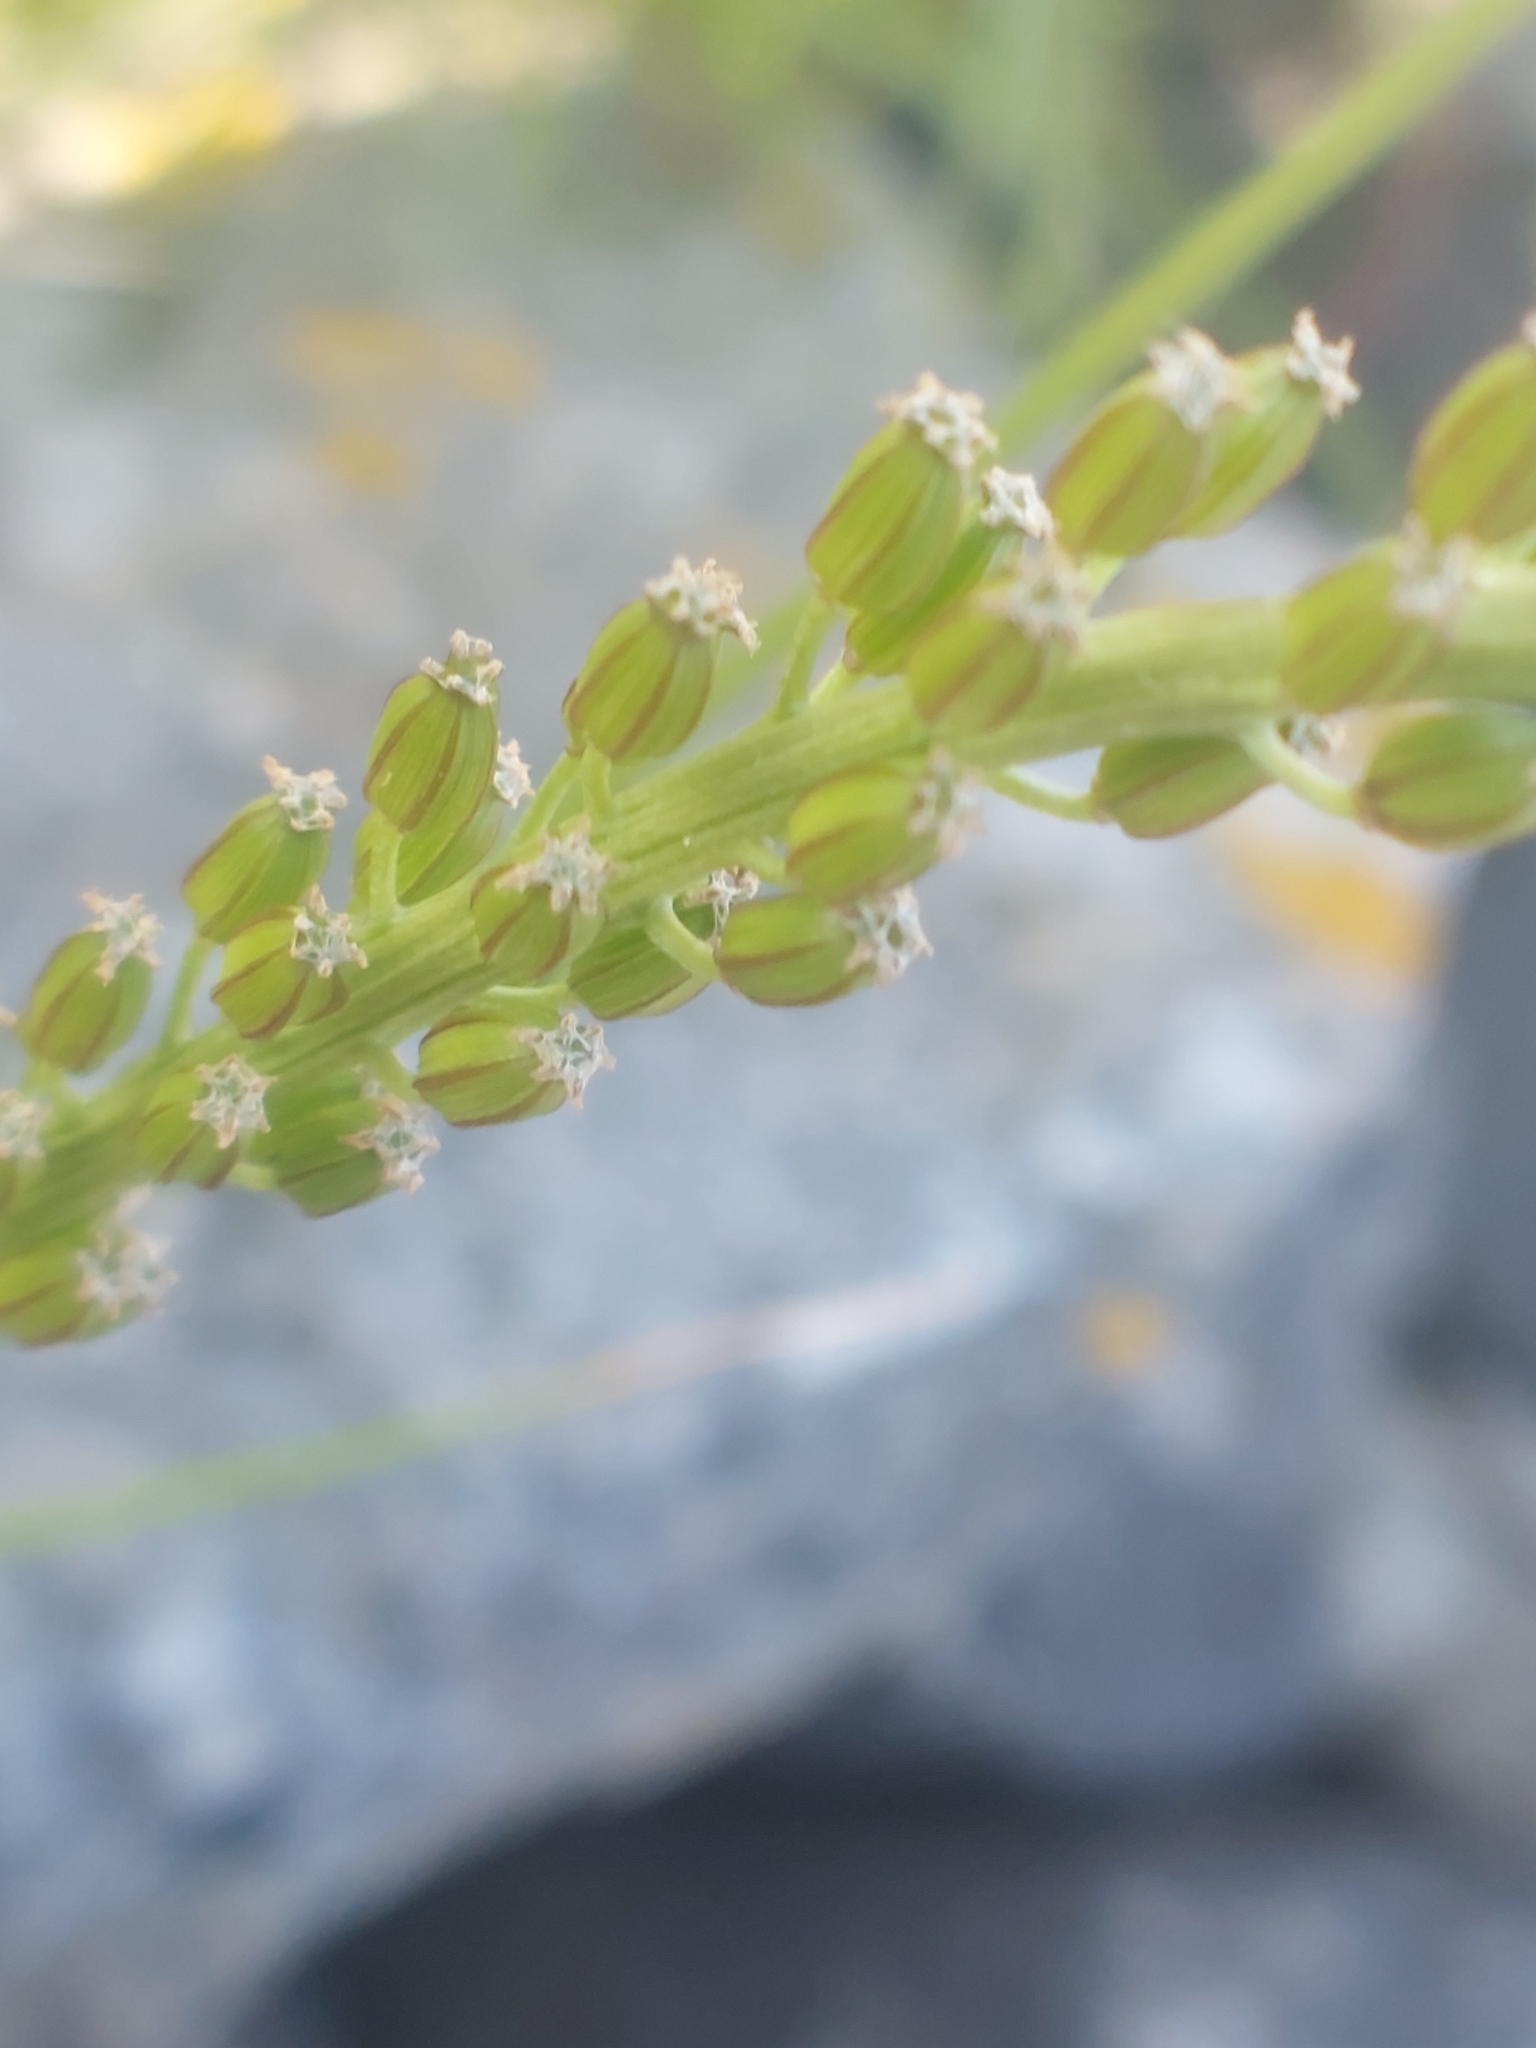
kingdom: Plantae
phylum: Tracheophyta
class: Liliopsida
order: Alismatales
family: Juncaginaceae
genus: Triglochin
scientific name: Triglochin maritima
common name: Sea arrowgrass
